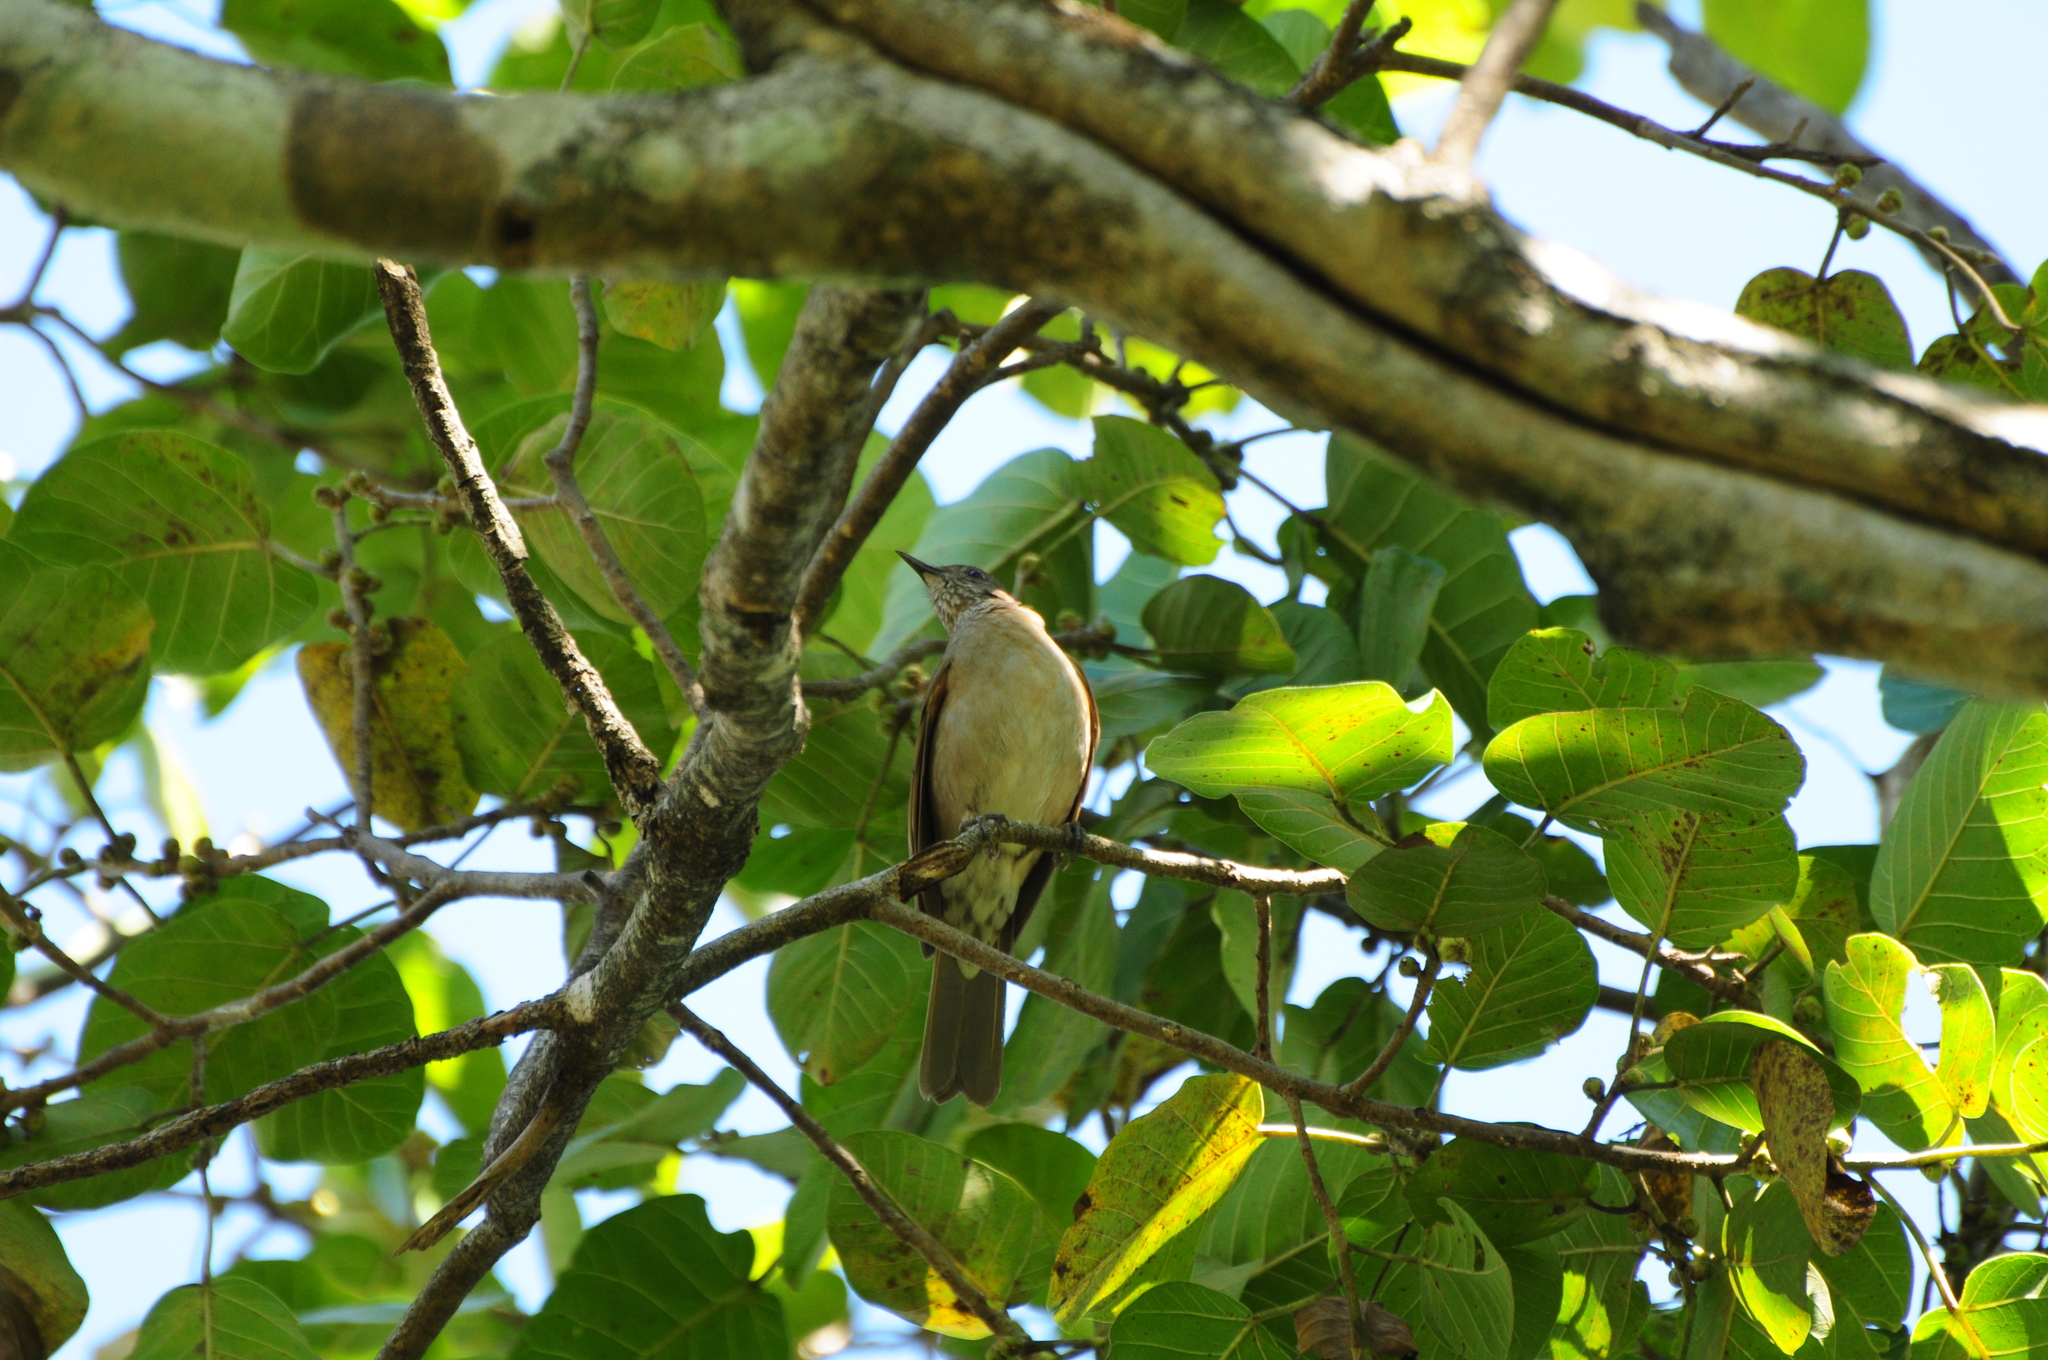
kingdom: Animalia
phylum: Chordata
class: Aves
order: Passeriformes
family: Turdidae
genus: Turdus
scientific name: Turdus leucomelas
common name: Pale-breasted thrush
